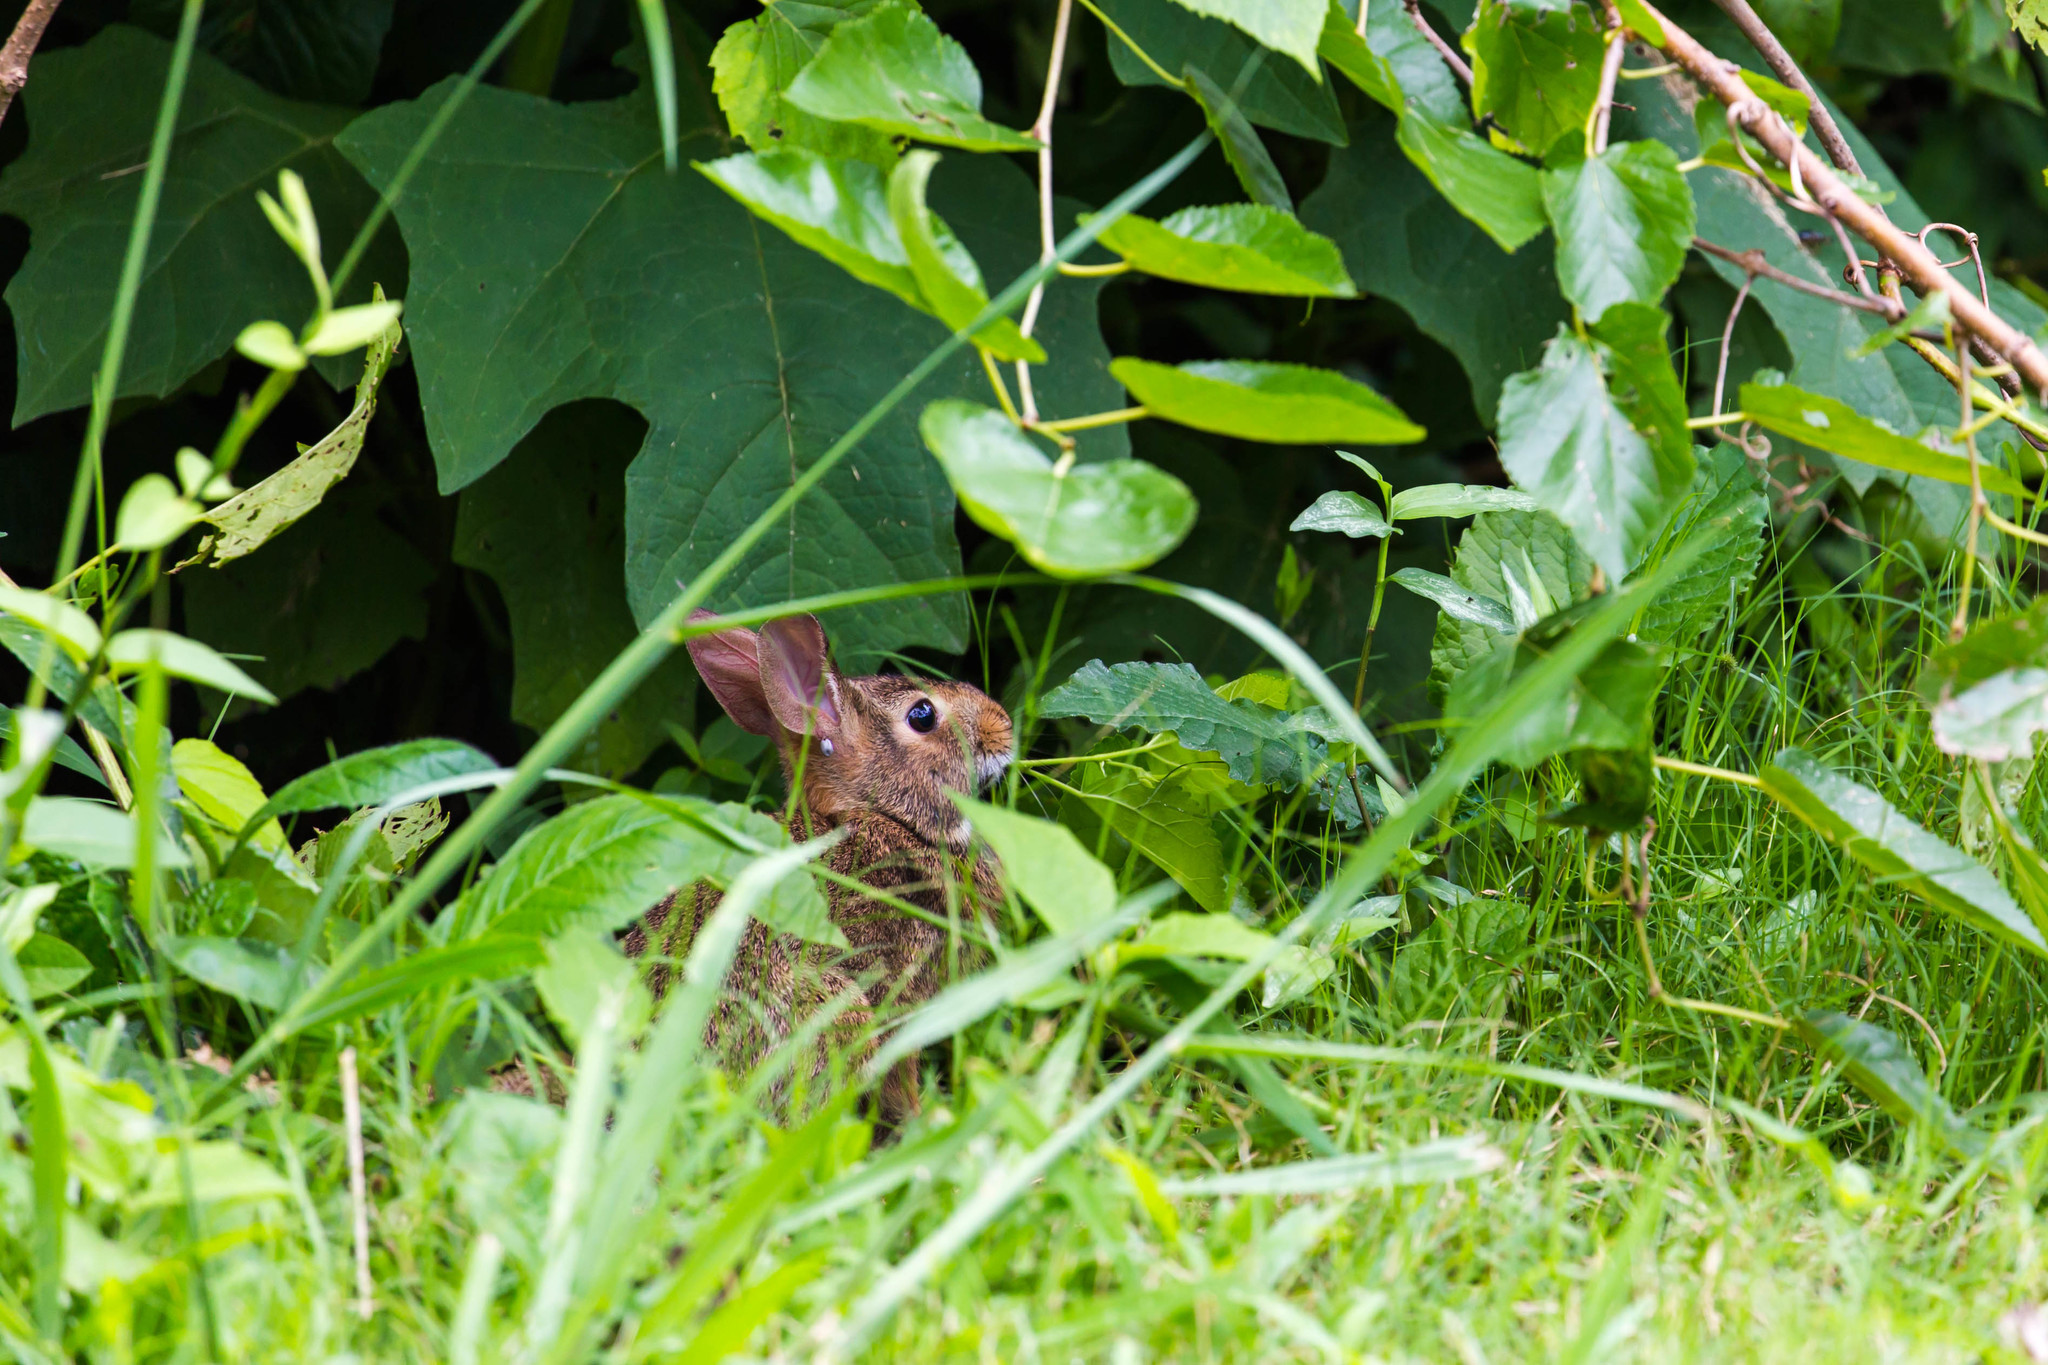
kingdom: Animalia
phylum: Chordata
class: Mammalia
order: Lagomorpha
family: Leporidae
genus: Sylvilagus
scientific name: Sylvilagus floridanus
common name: Eastern cottontail
